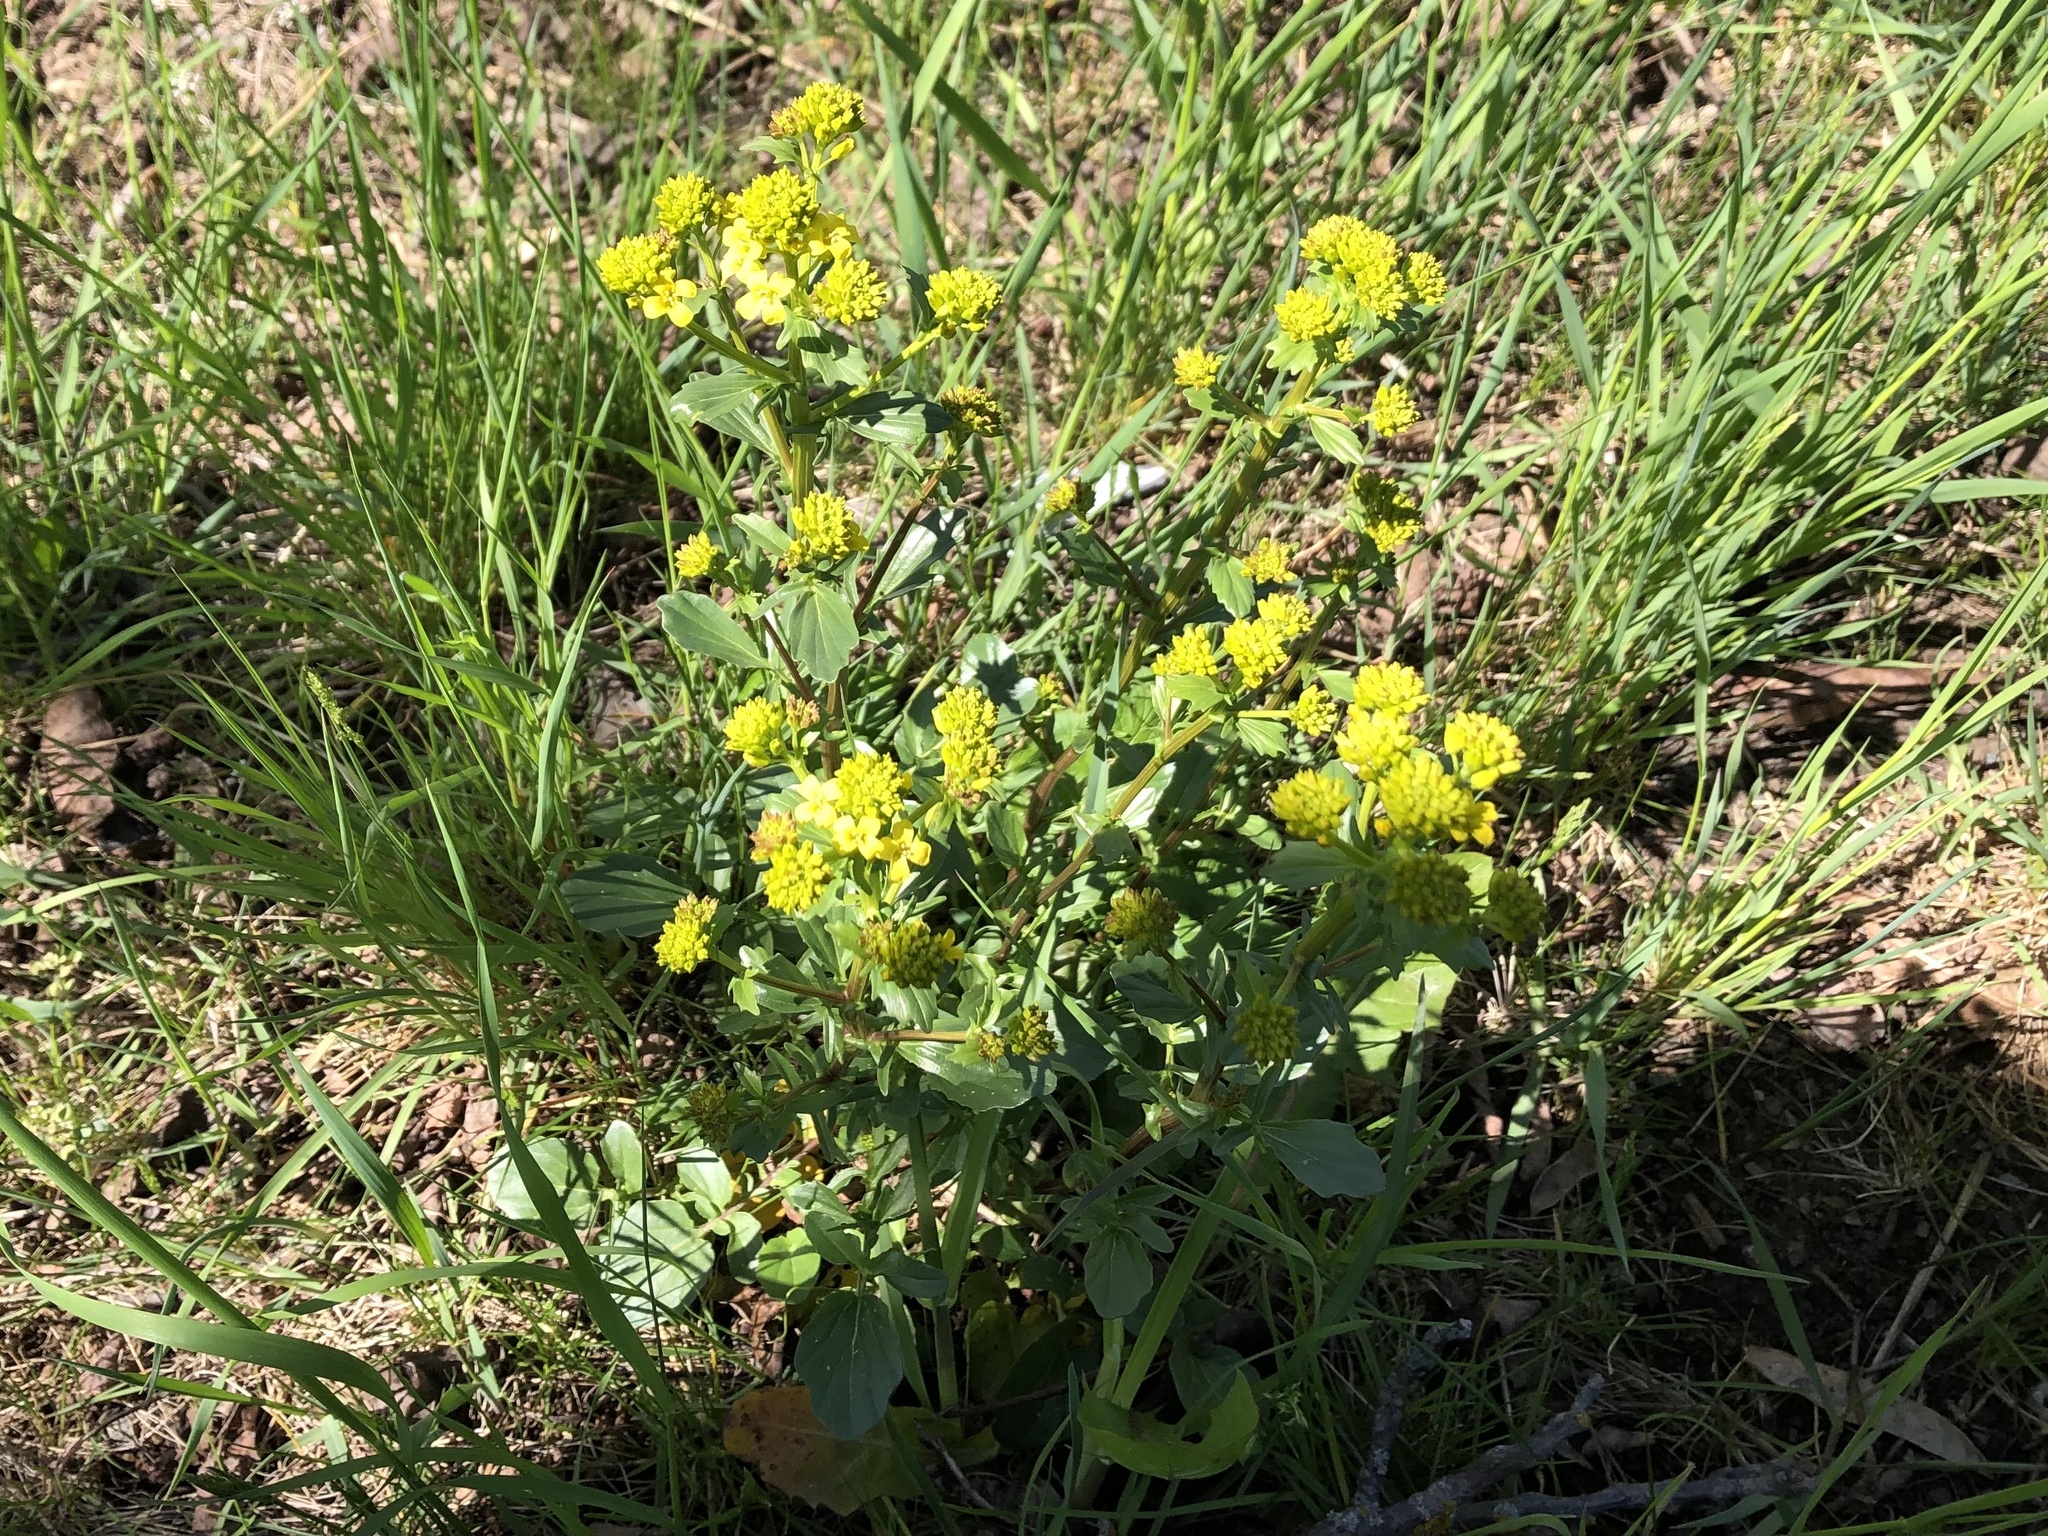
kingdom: Plantae
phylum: Tracheophyta
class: Magnoliopsida
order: Brassicales
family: Brassicaceae
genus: Barbarea
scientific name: Barbarea vulgaris
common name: Cressy-greens
